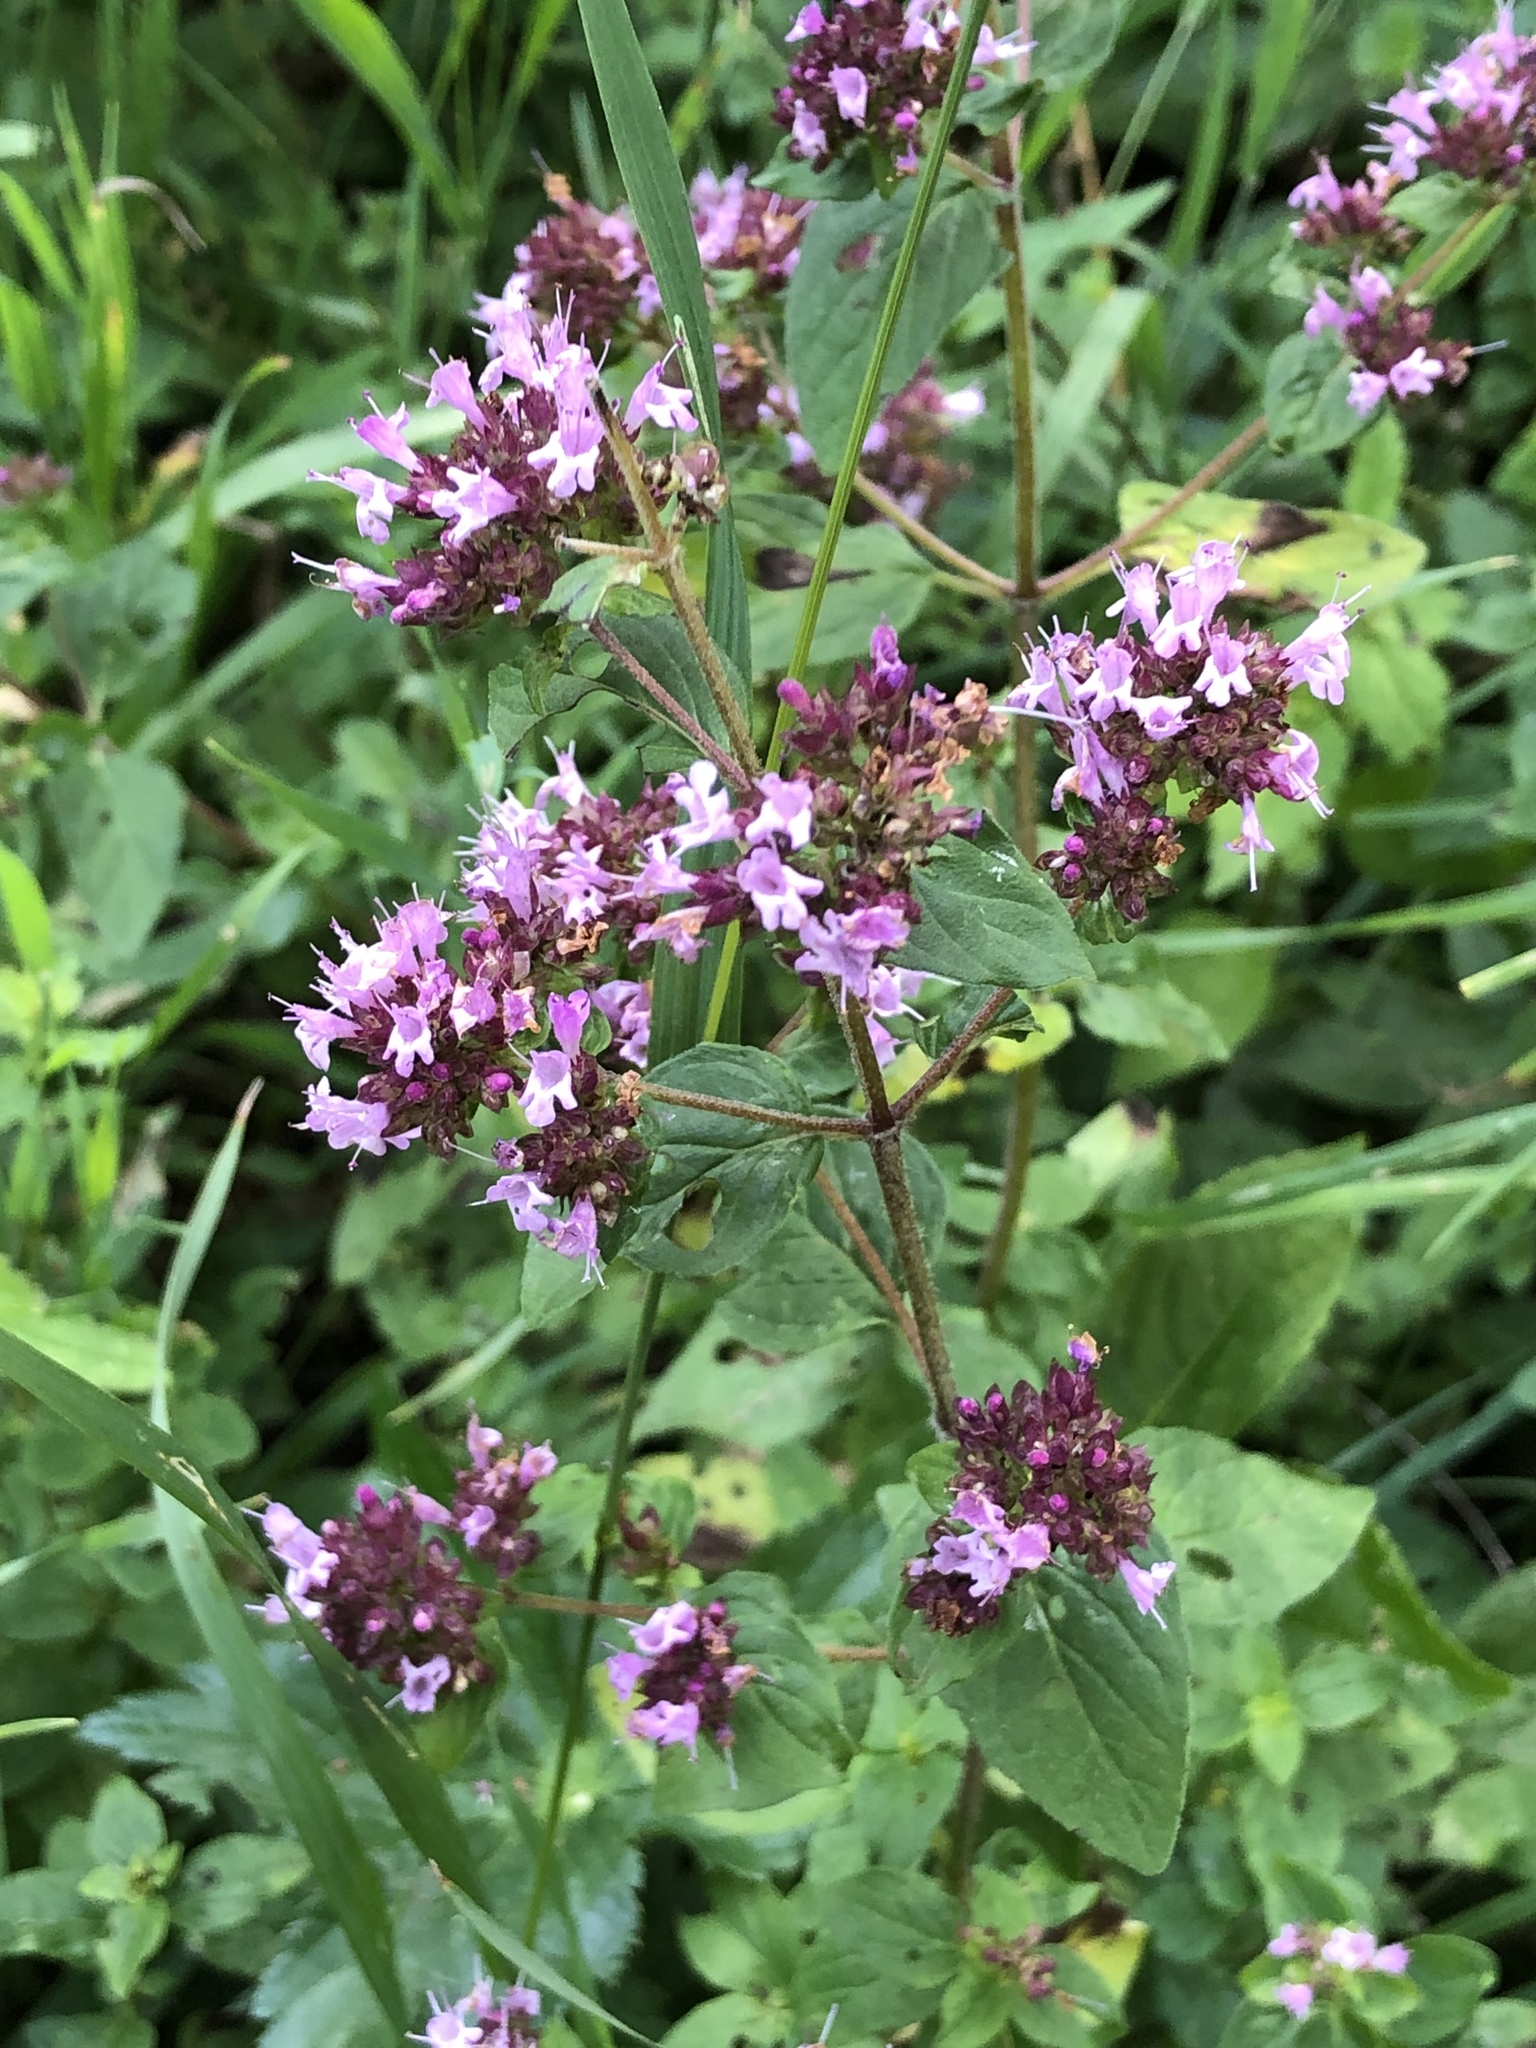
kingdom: Plantae
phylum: Tracheophyta
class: Magnoliopsida
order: Lamiales
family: Lamiaceae
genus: Origanum
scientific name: Origanum vulgare
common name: Wild marjoram
